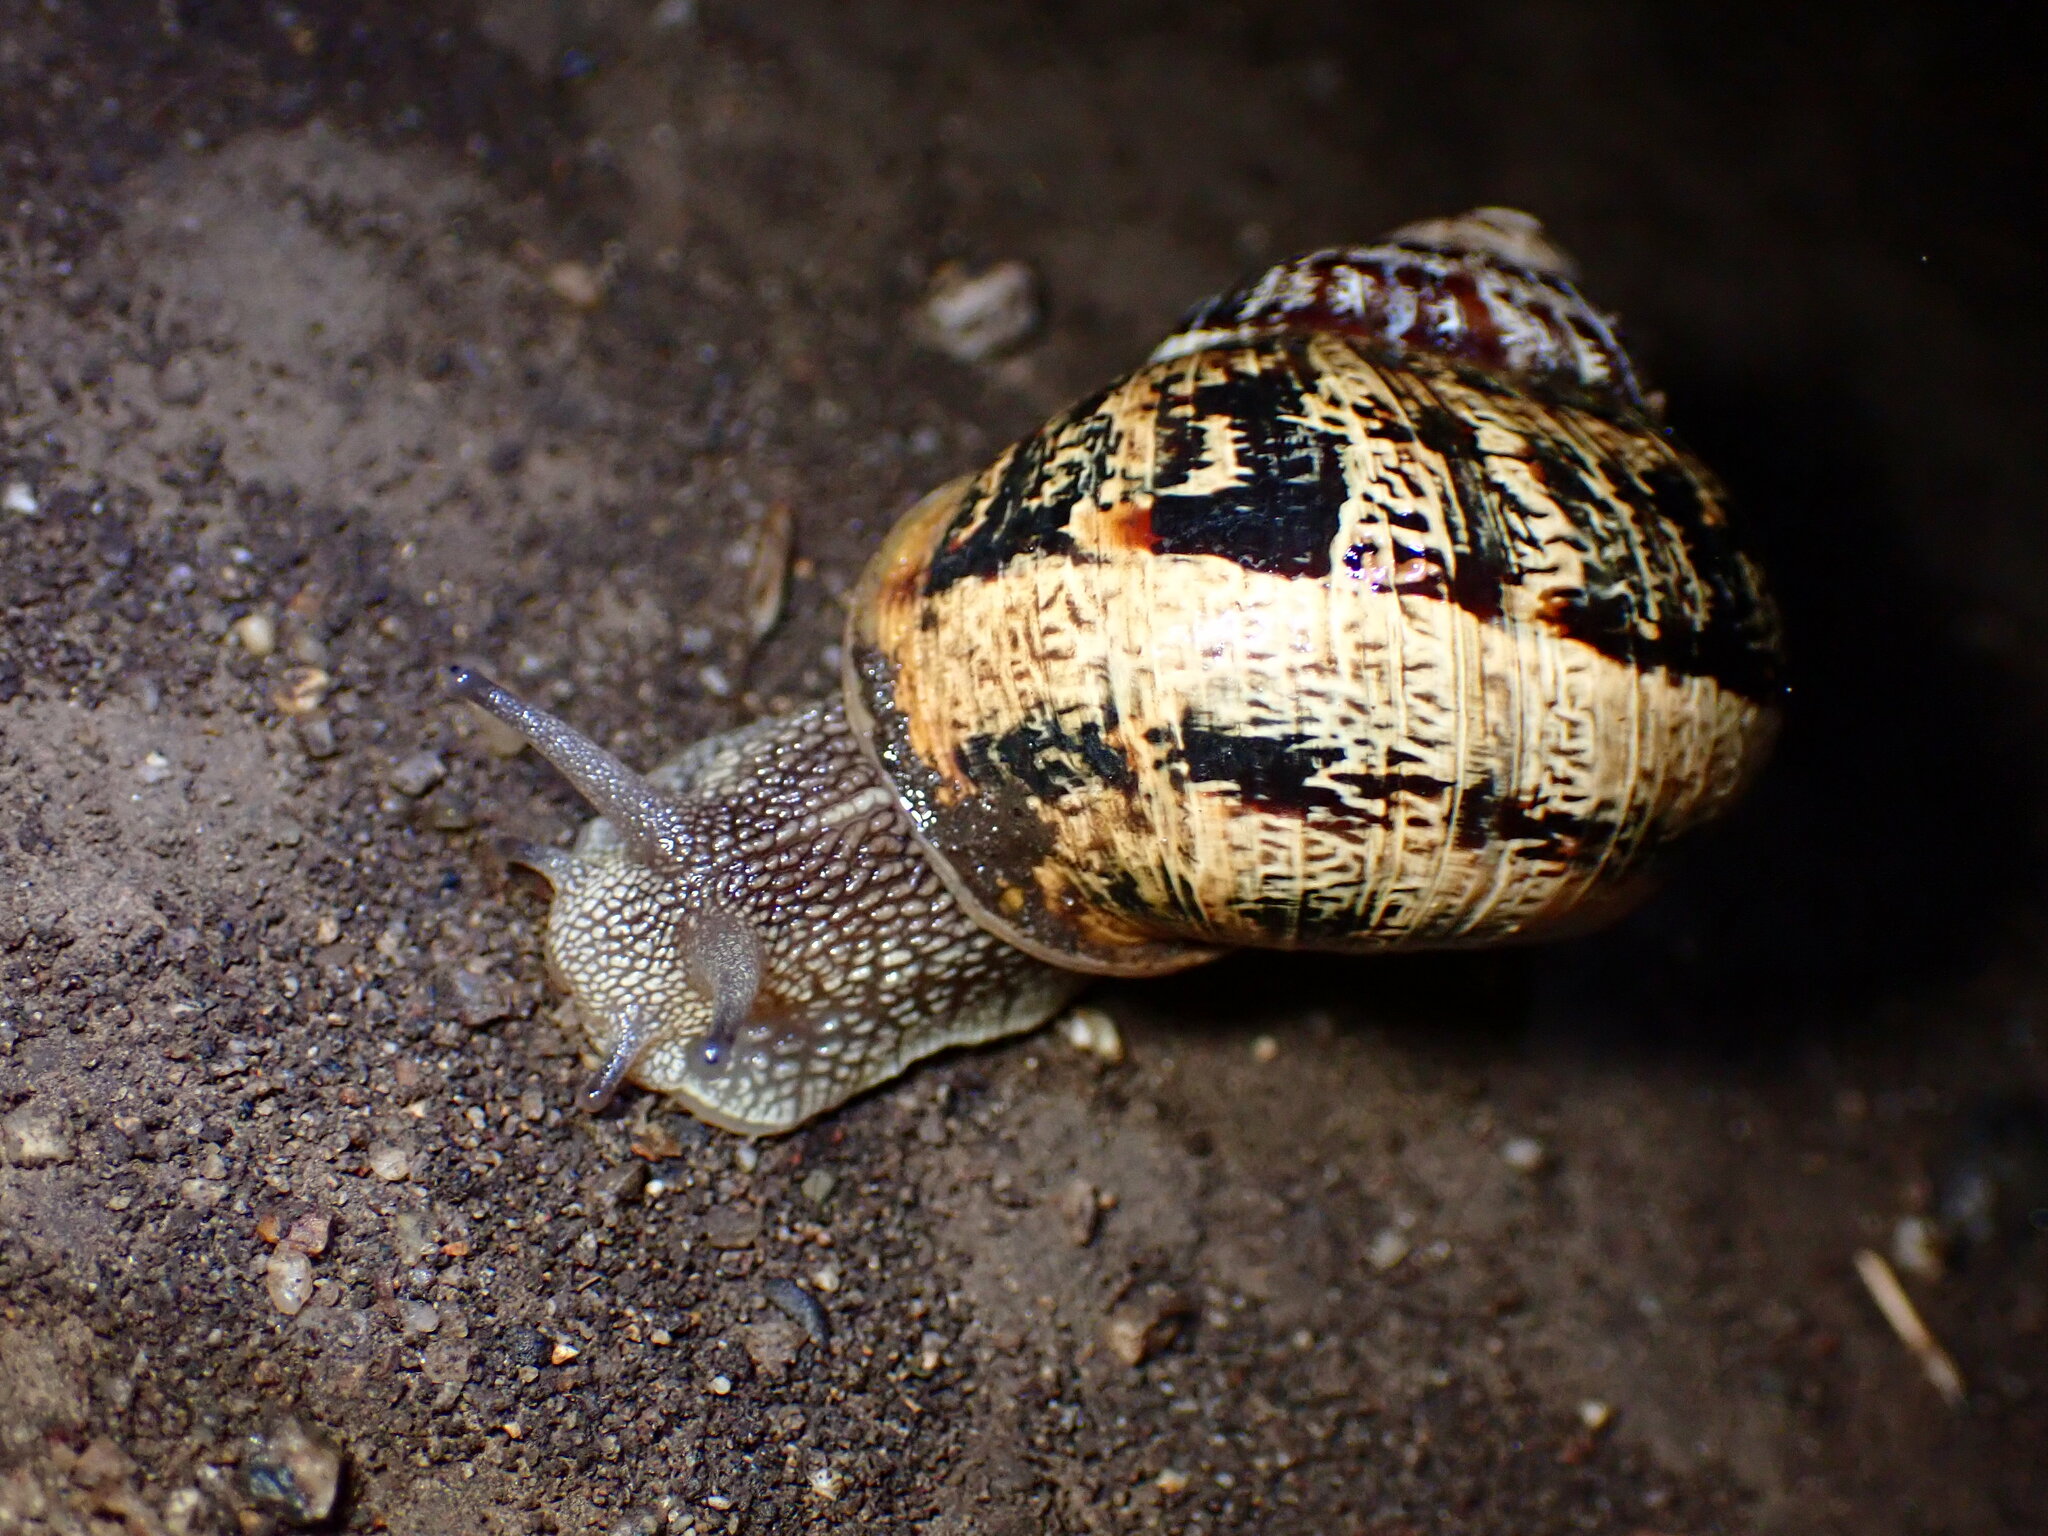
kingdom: Animalia
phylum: Mollusca
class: Gastropoda
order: Stylommatophora
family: Helicidae
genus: Cornu
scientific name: Cornu aspersum
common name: Brown garden snail
